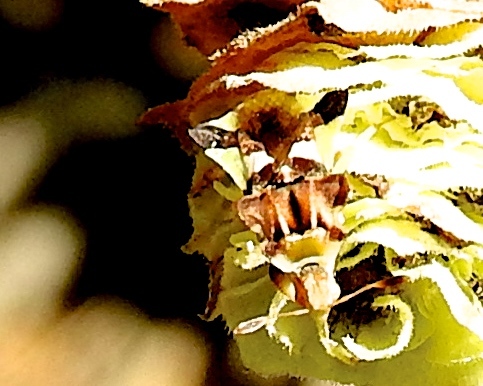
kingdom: Animalia
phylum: Arthropoda
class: Insecta
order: Hemiptera
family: Reduviidae
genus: Phymata
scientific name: Phymata
